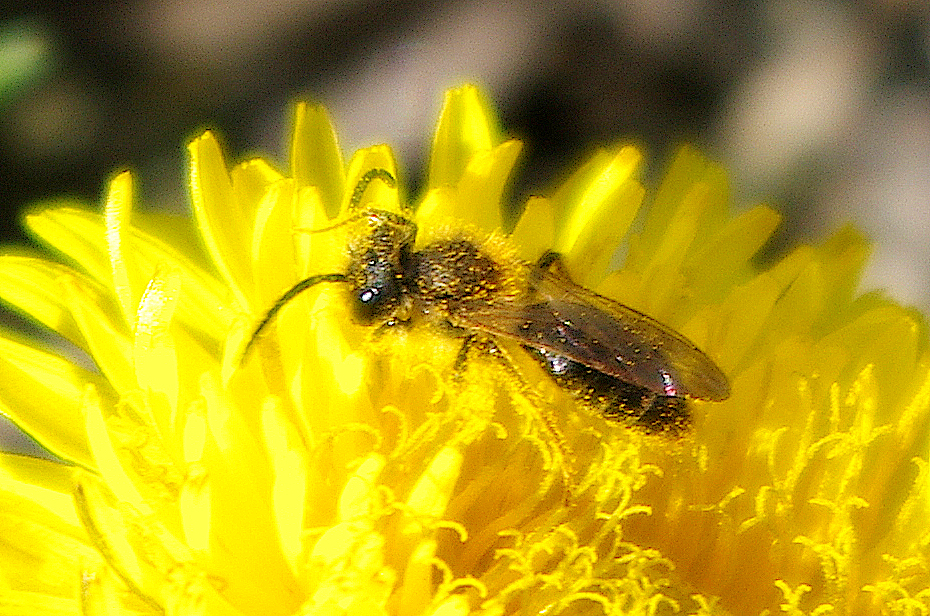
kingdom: Animalia
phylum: Arthropoda
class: Insecta
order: Hymenoptera
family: Andrenidae
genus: Andrena
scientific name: Andrena
